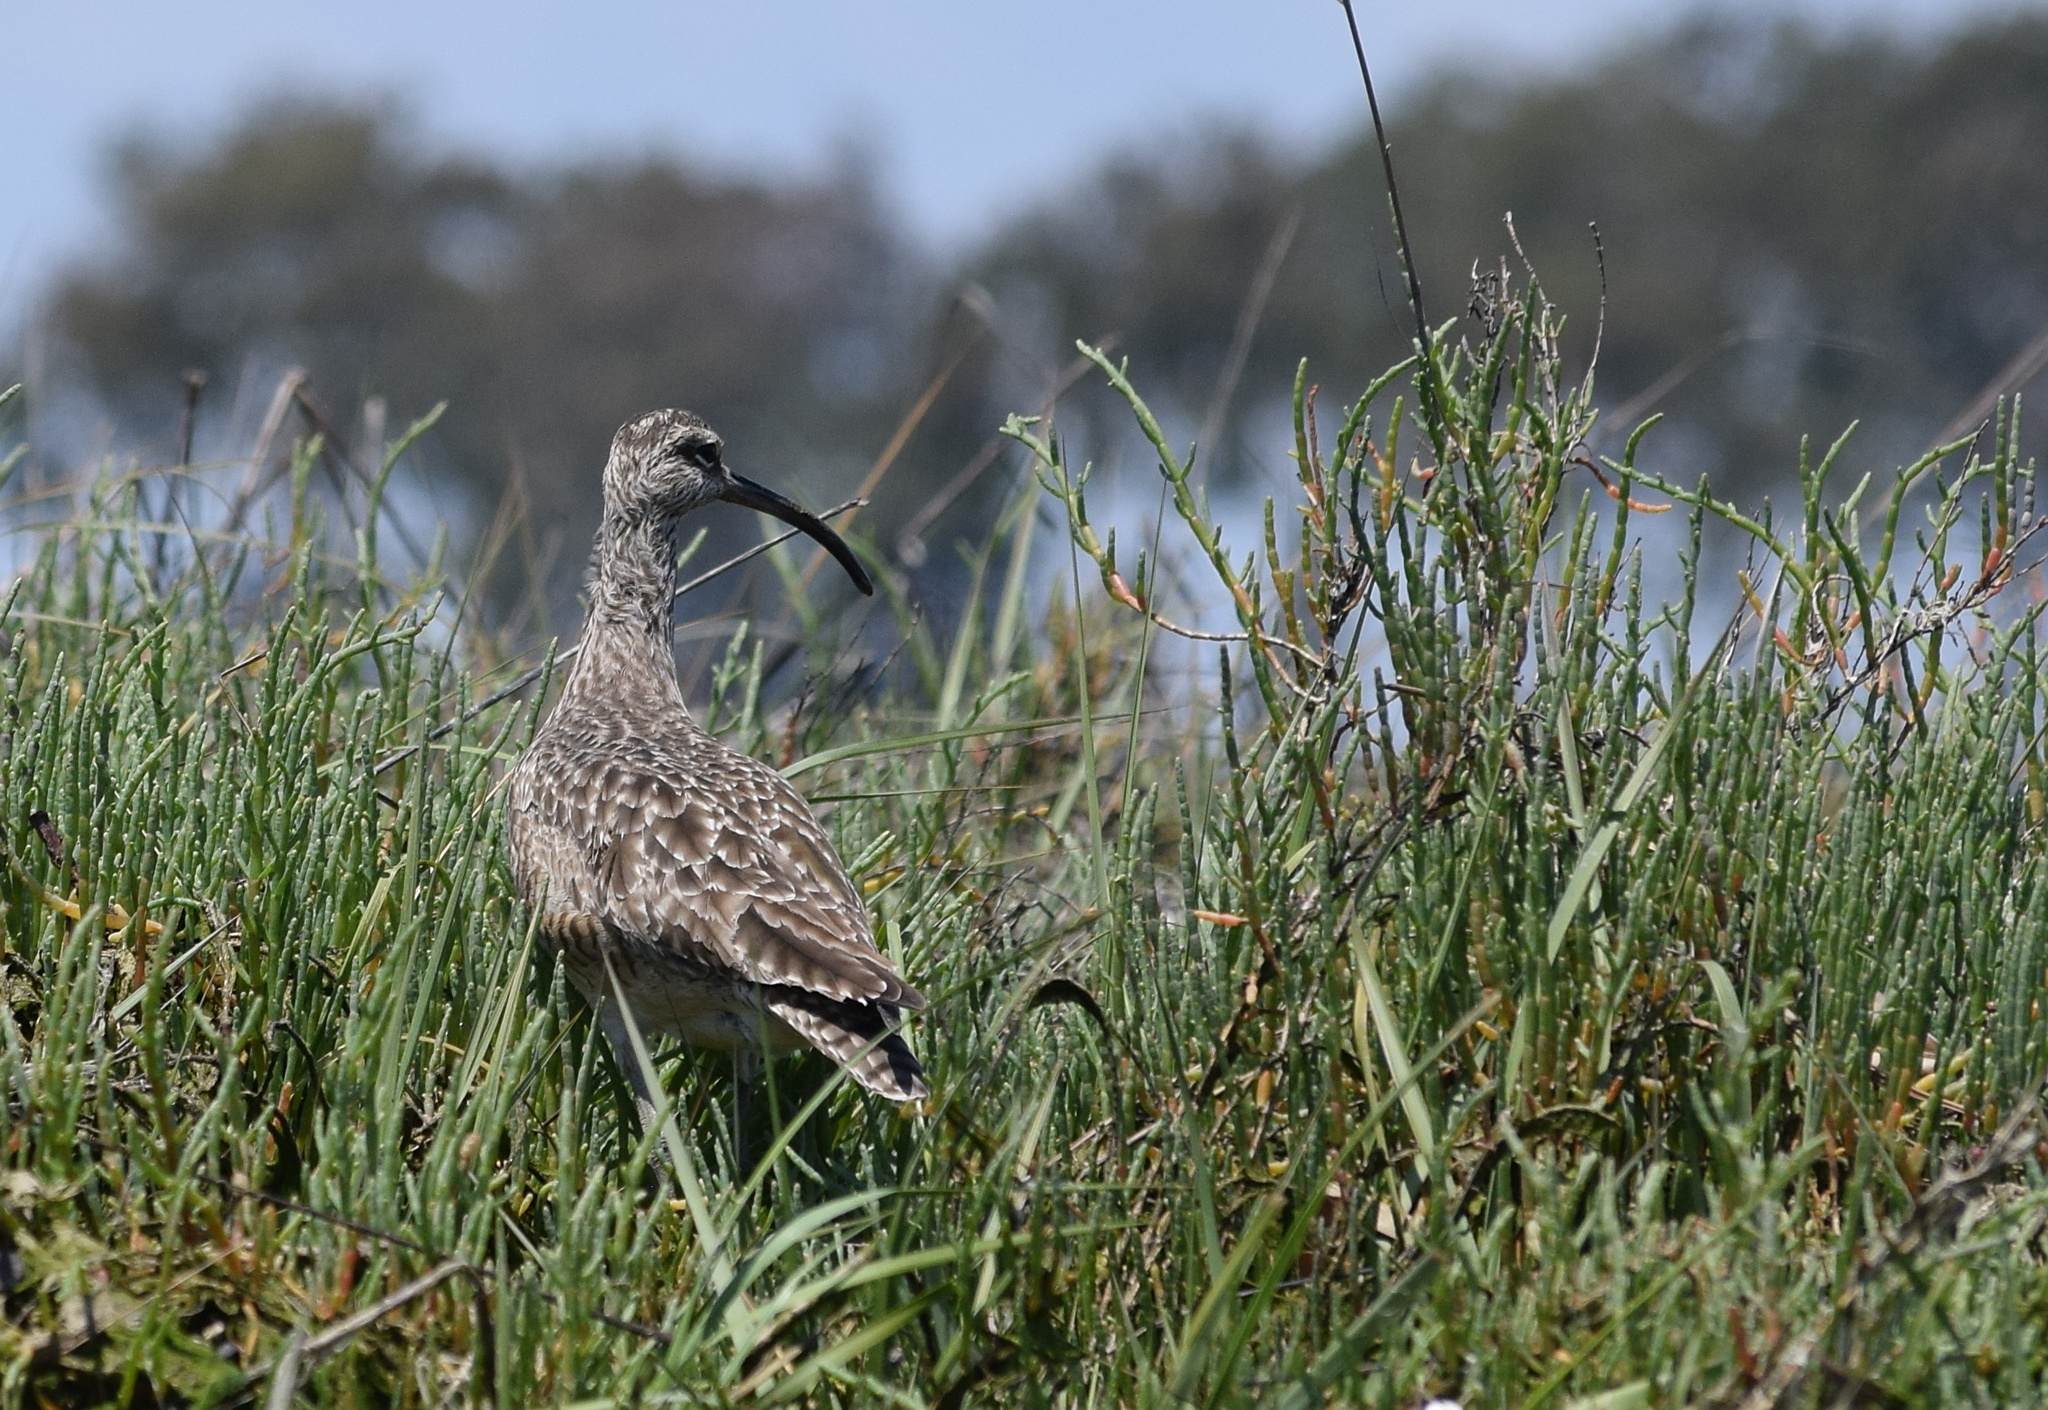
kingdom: Animalia
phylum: Chordata
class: Aves
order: Charadriiformes
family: Scolopacidae
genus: Numenius
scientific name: Numenius phaeopus
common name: Whimbrel
